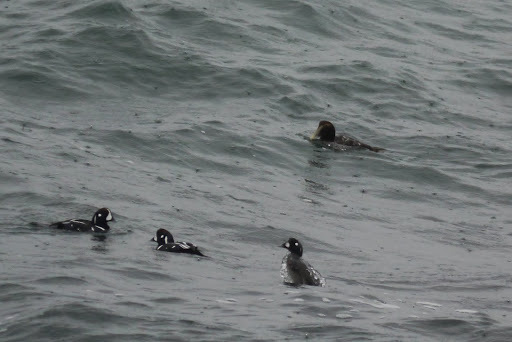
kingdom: Animalia
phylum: Chordata
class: Aves
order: Anseriformes
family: Anatidae
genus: Somateria
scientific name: Somateria mollissima
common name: Common eider
